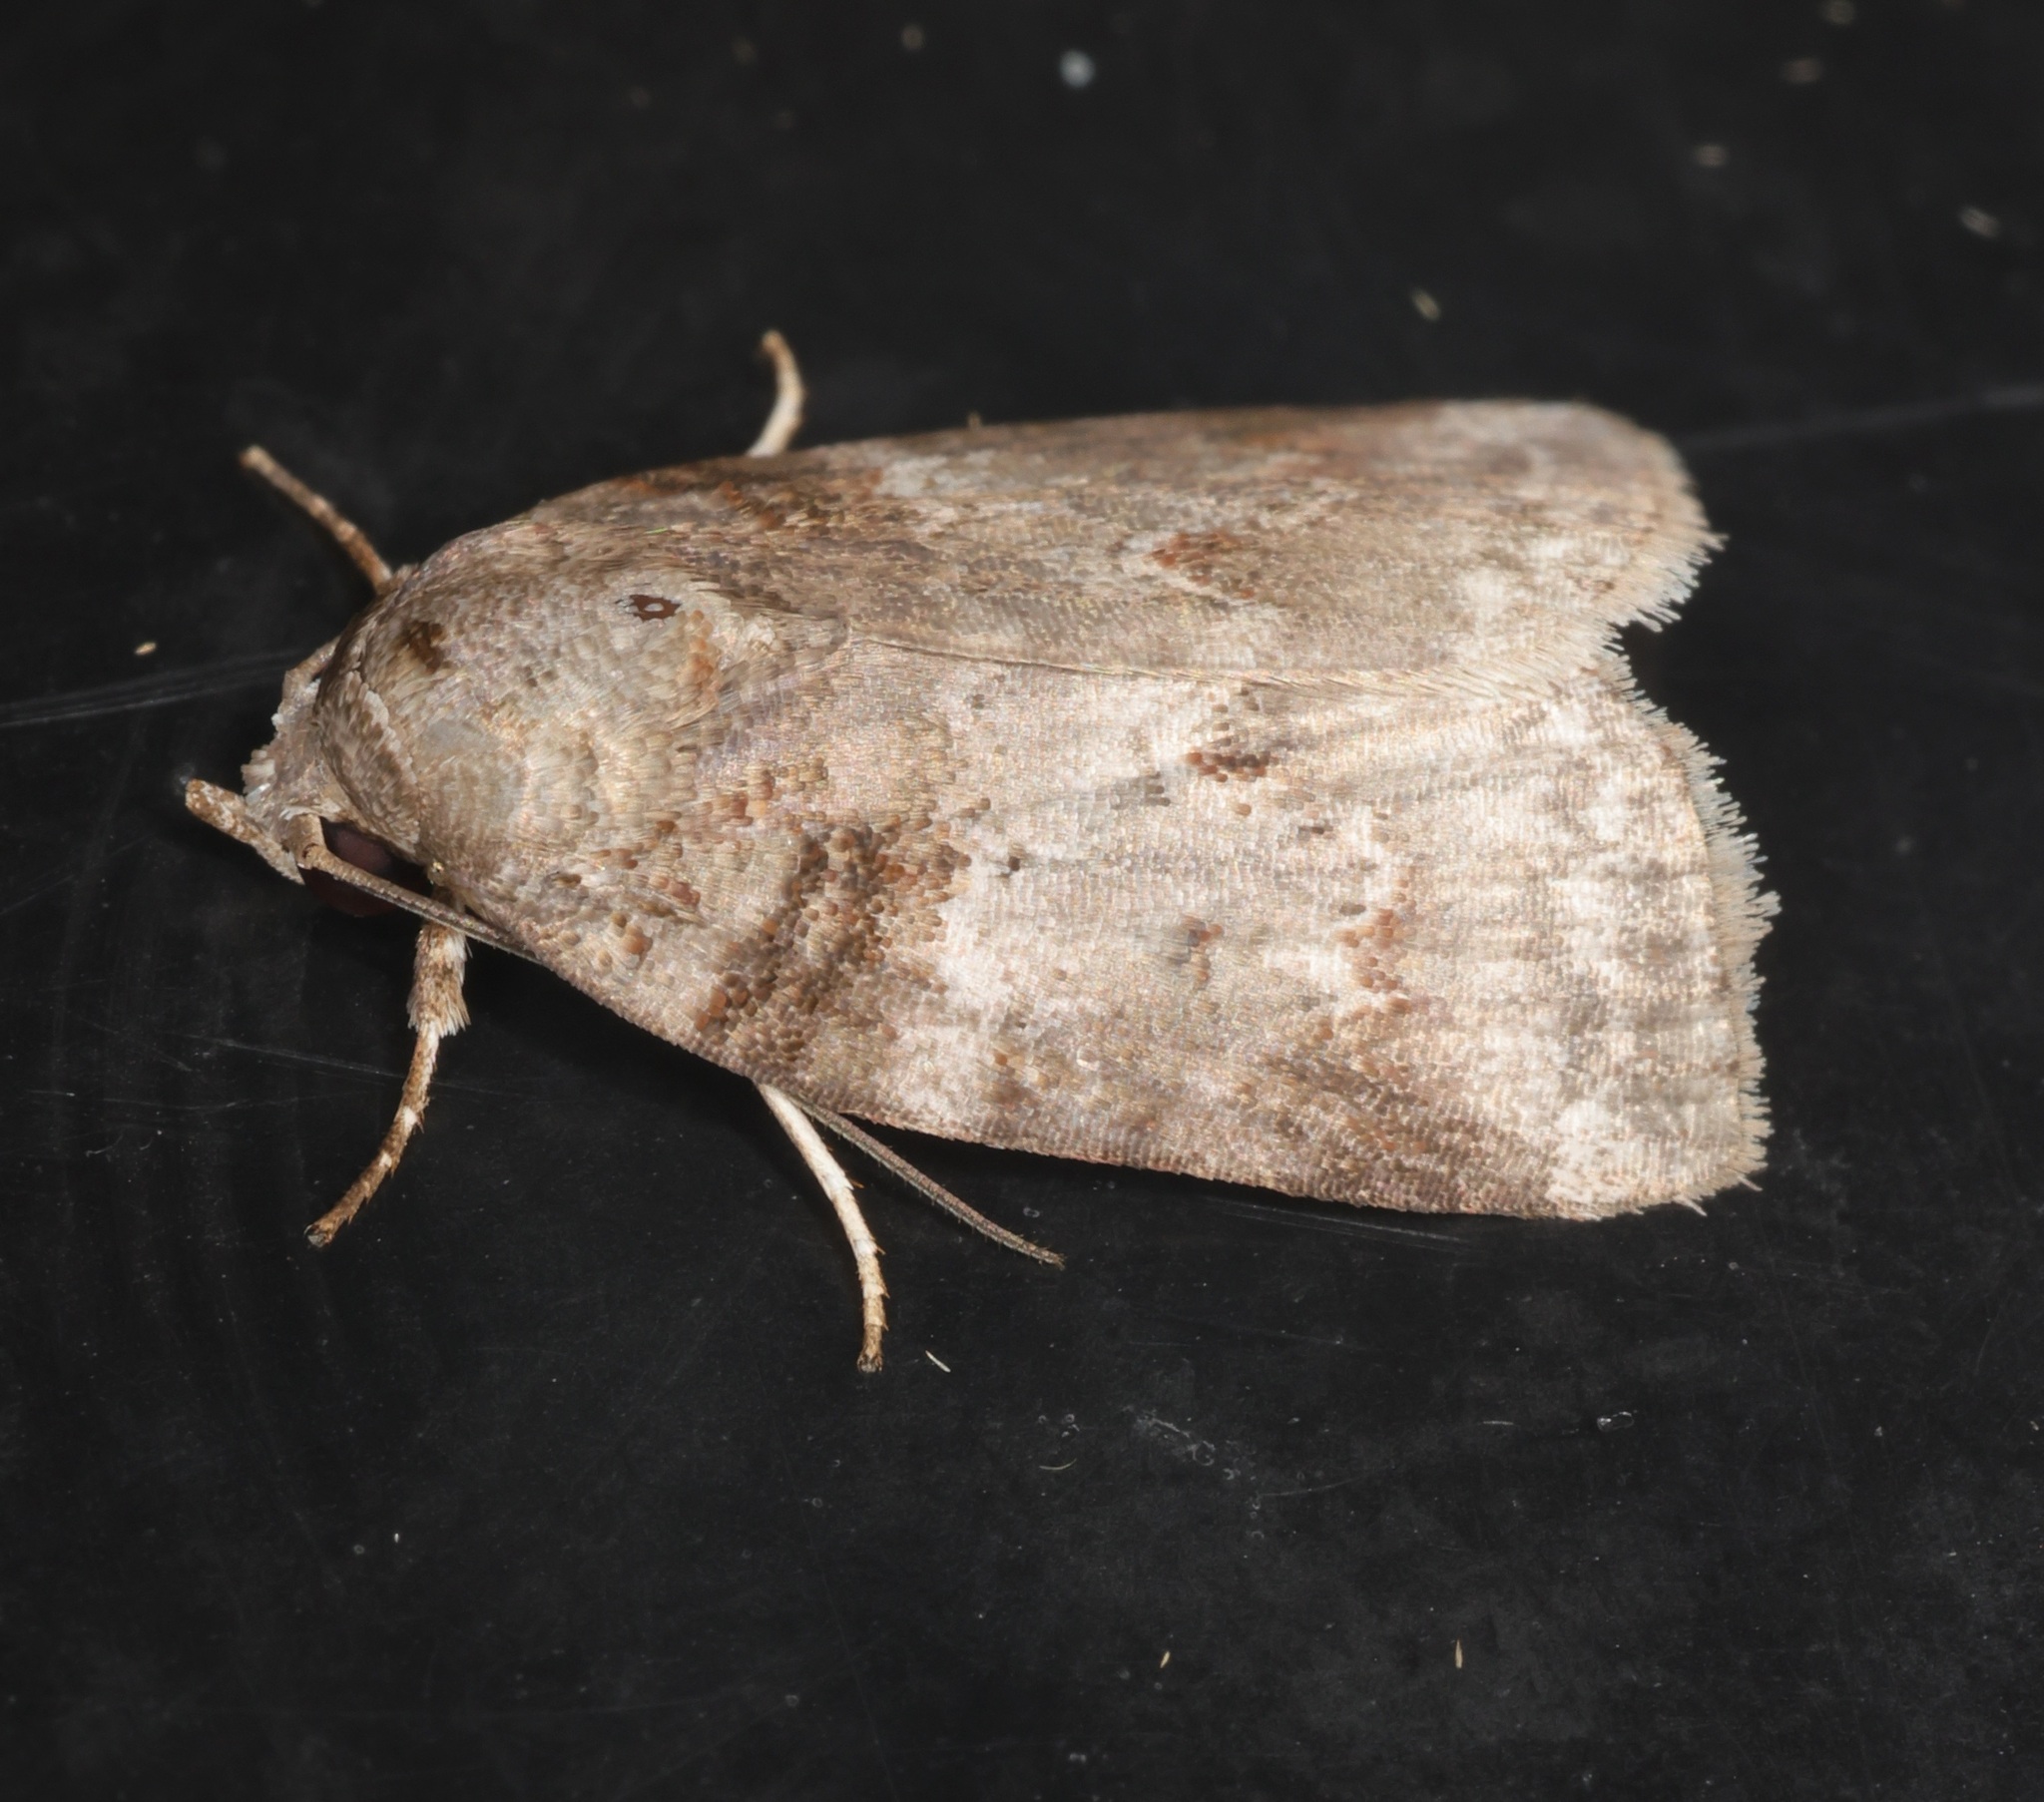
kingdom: Animalia
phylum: Arthropoda
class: Insecta
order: Lepidoptera
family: Nolidae
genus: Garella
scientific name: Garella ruficirra
